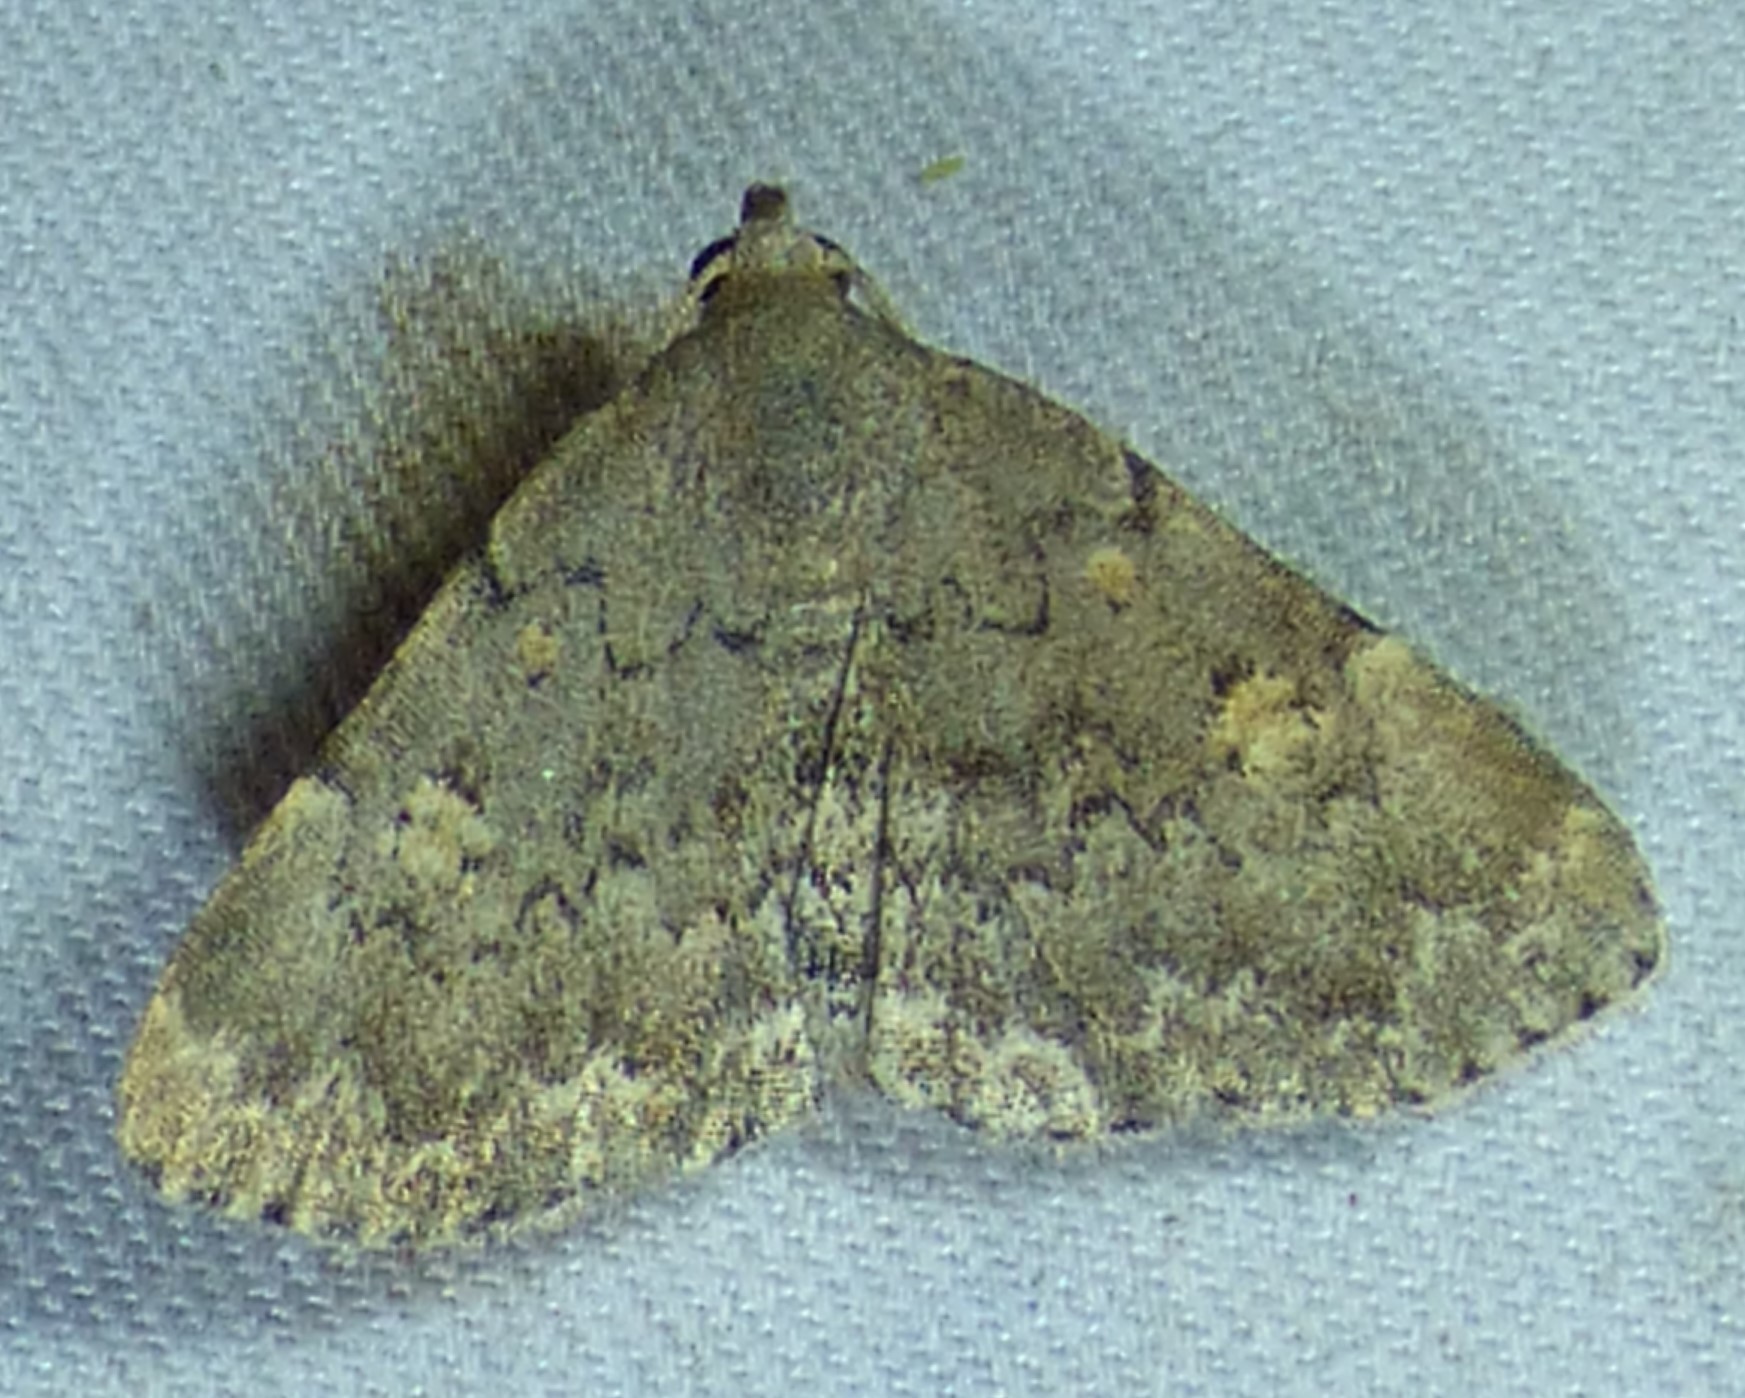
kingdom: Animalia
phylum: Arthropoda
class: Insecta
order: Lepidoptera
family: Erebidae
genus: Idia
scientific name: Idia aemula
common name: Common idia moth
